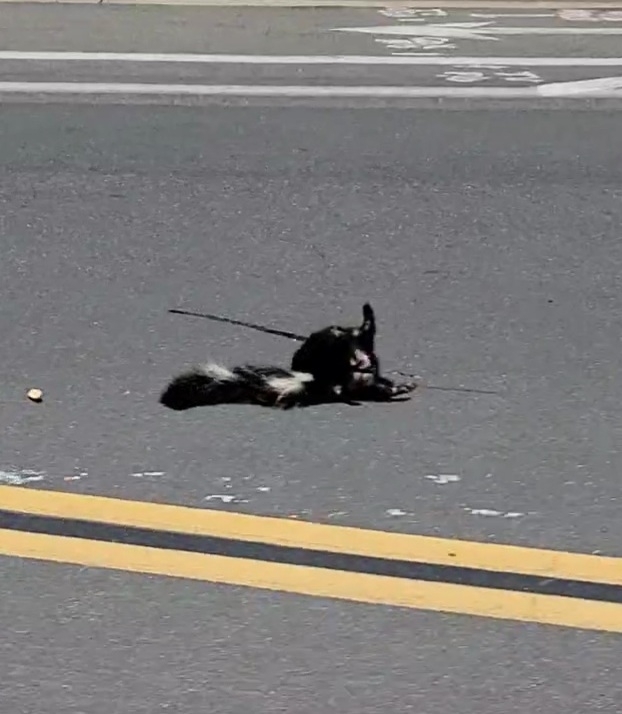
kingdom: Animalia
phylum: Chordata
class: Mammalia
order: Carnivora
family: Mephitidae
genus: Mephitis
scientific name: Mephitis mephitis
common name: Striped skunk
